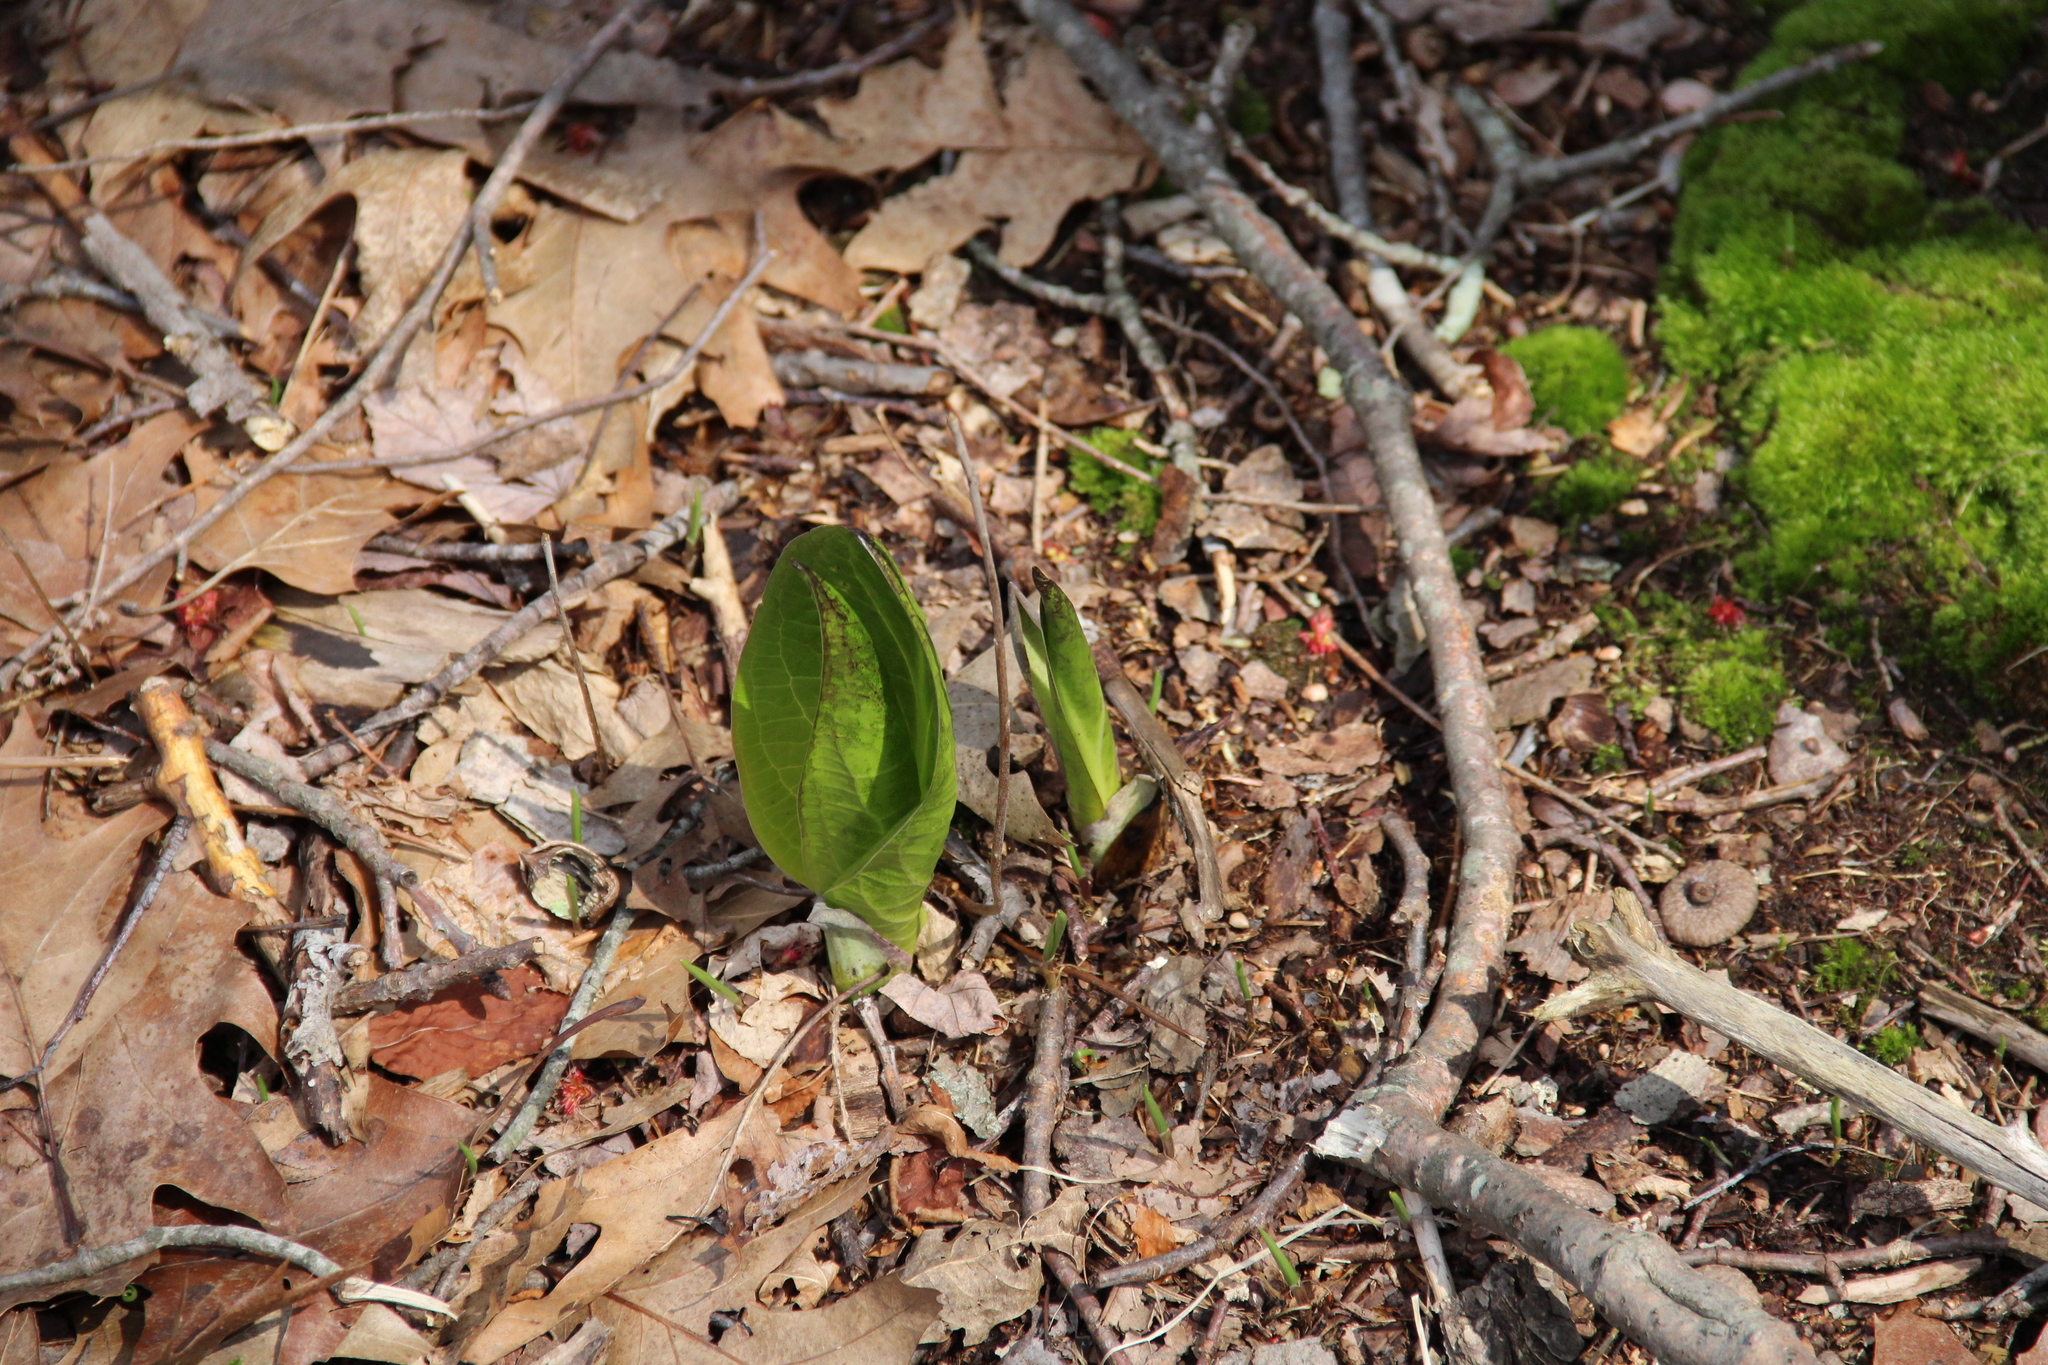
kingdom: Plantae
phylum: Tracheophyta
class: Liliopsida
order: Alismatales
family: Araceae
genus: Symplocarpus
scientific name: Symplocarpus foetidus
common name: Eastern skunk cabbage
